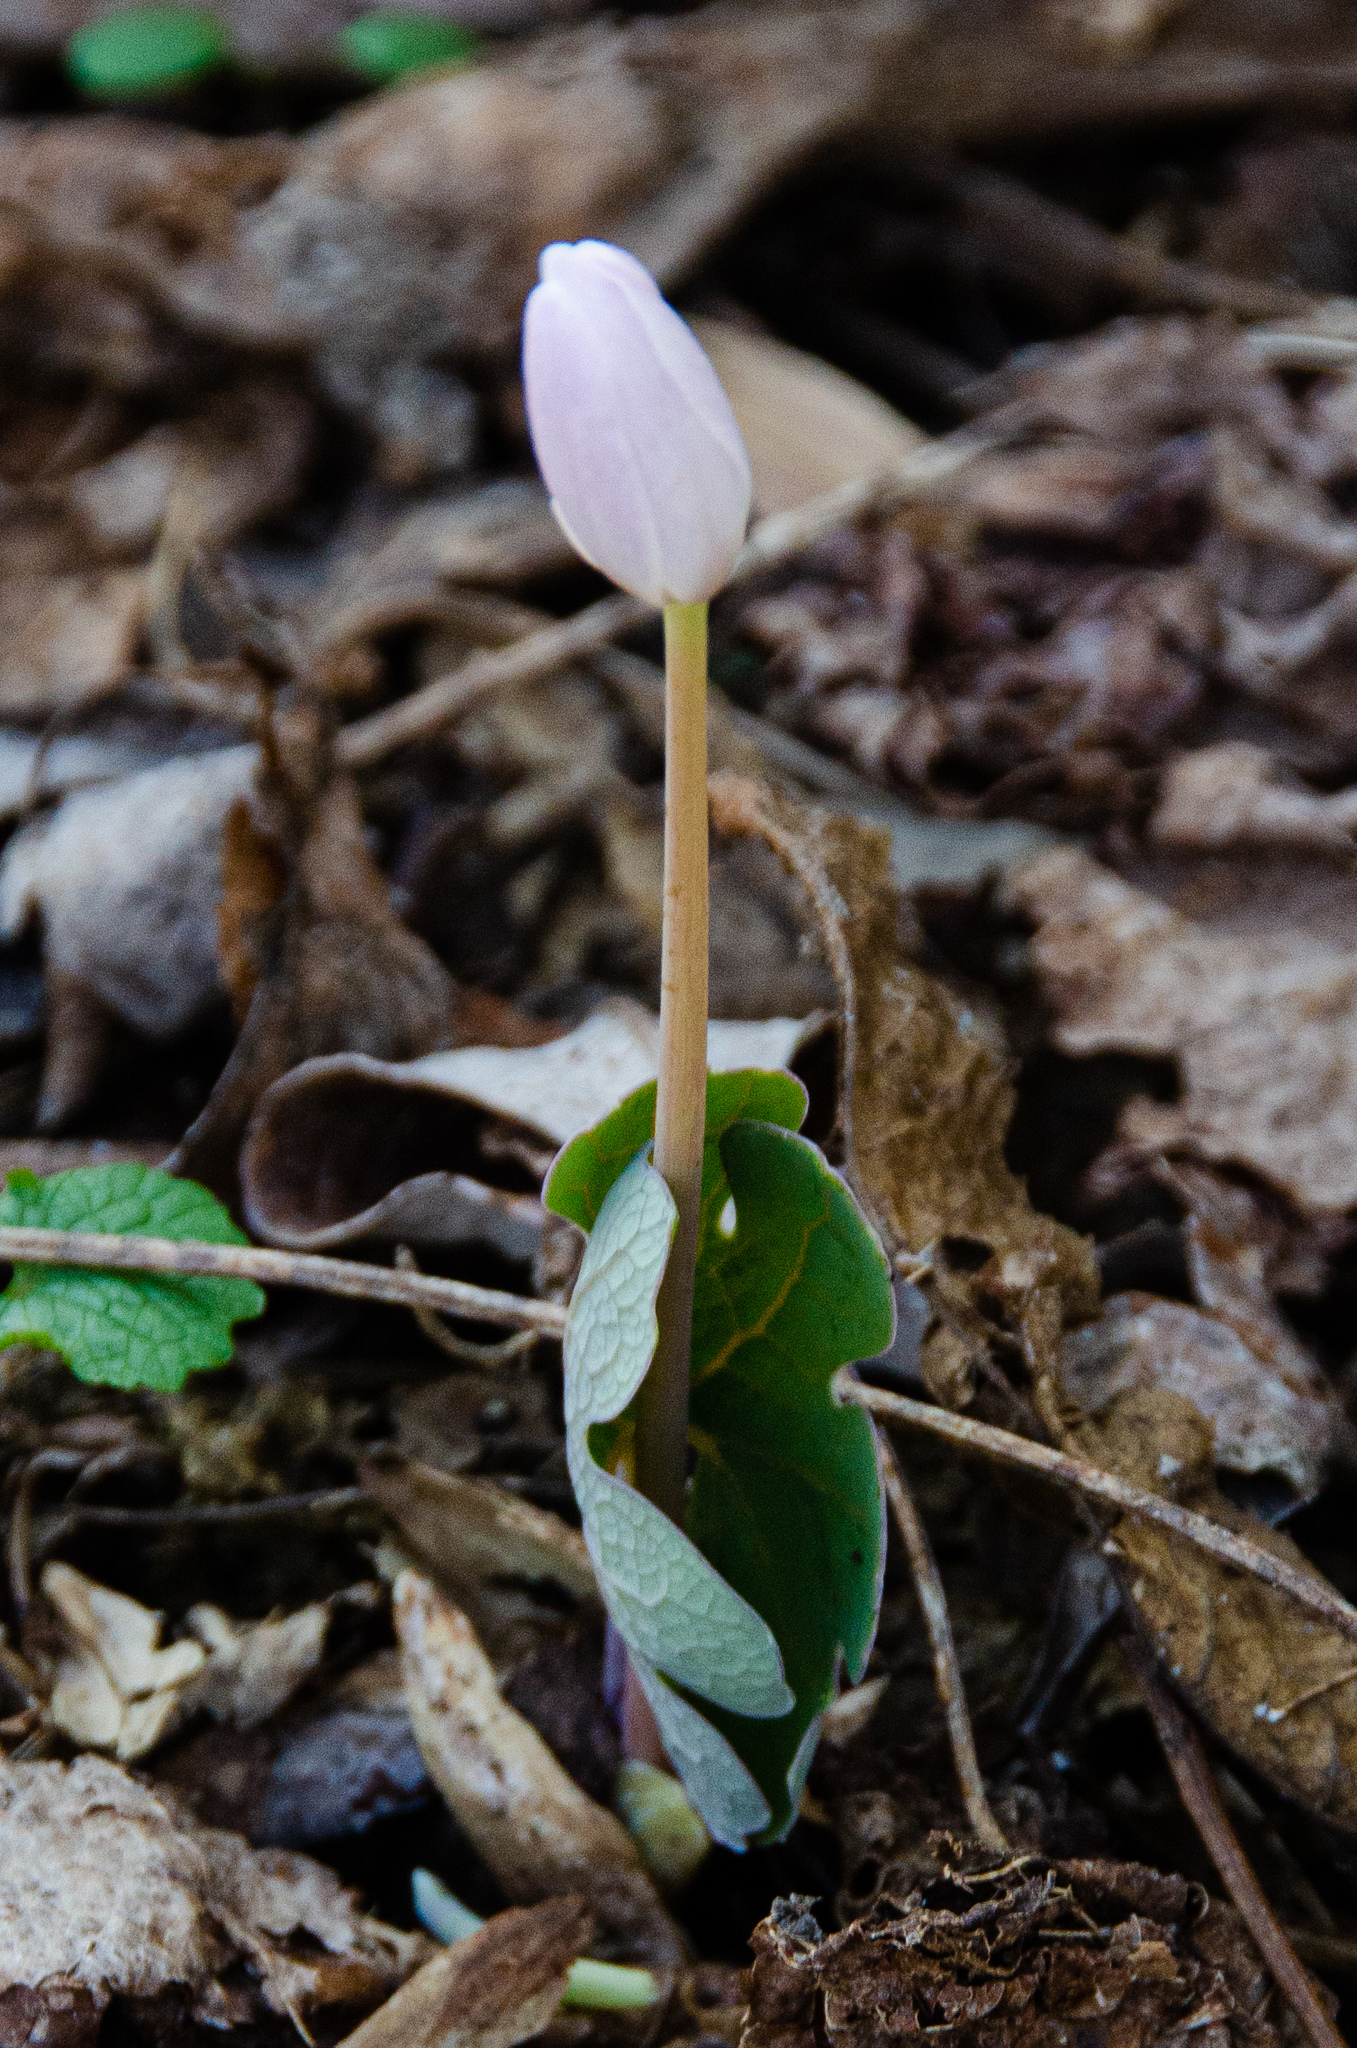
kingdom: Plantae
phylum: Tracheophyta
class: Magnoliopsida
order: Ranunculales
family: Papaveraceae
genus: Sanguinaria
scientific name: Sanguinaria canadensis
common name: Bloodroot
